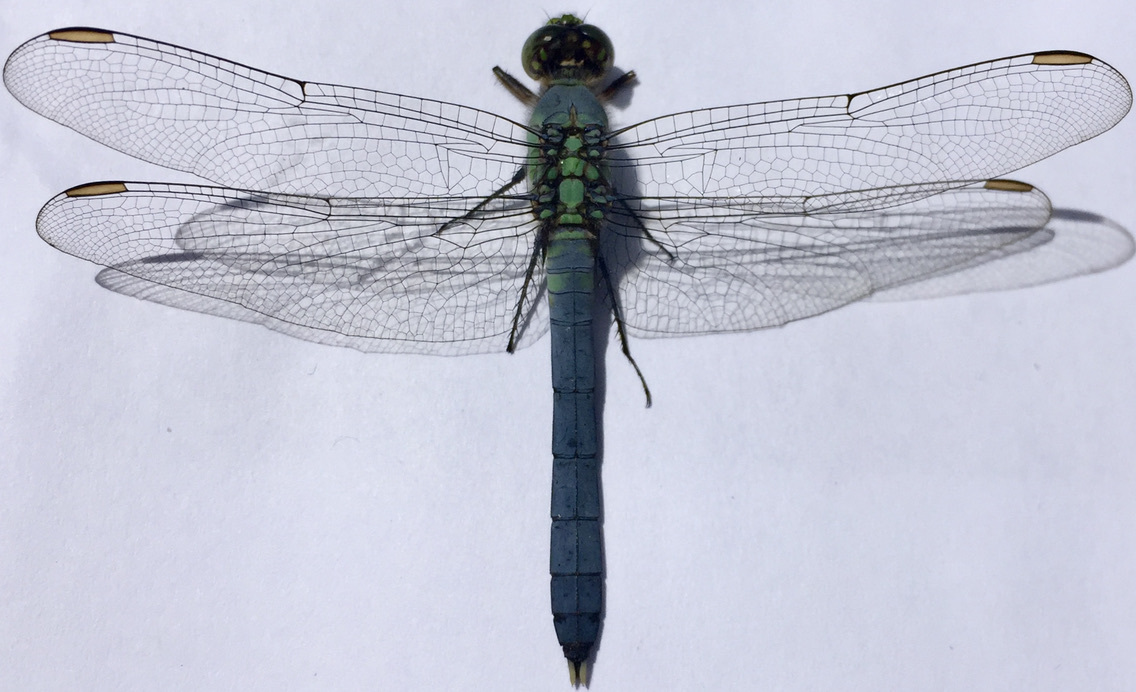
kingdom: Animalia
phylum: Arthropoda
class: Insecta
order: Odonata
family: Libellulidae
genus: Erythemis
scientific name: Erythemis simplicicollis
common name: Eastern pondhawk
